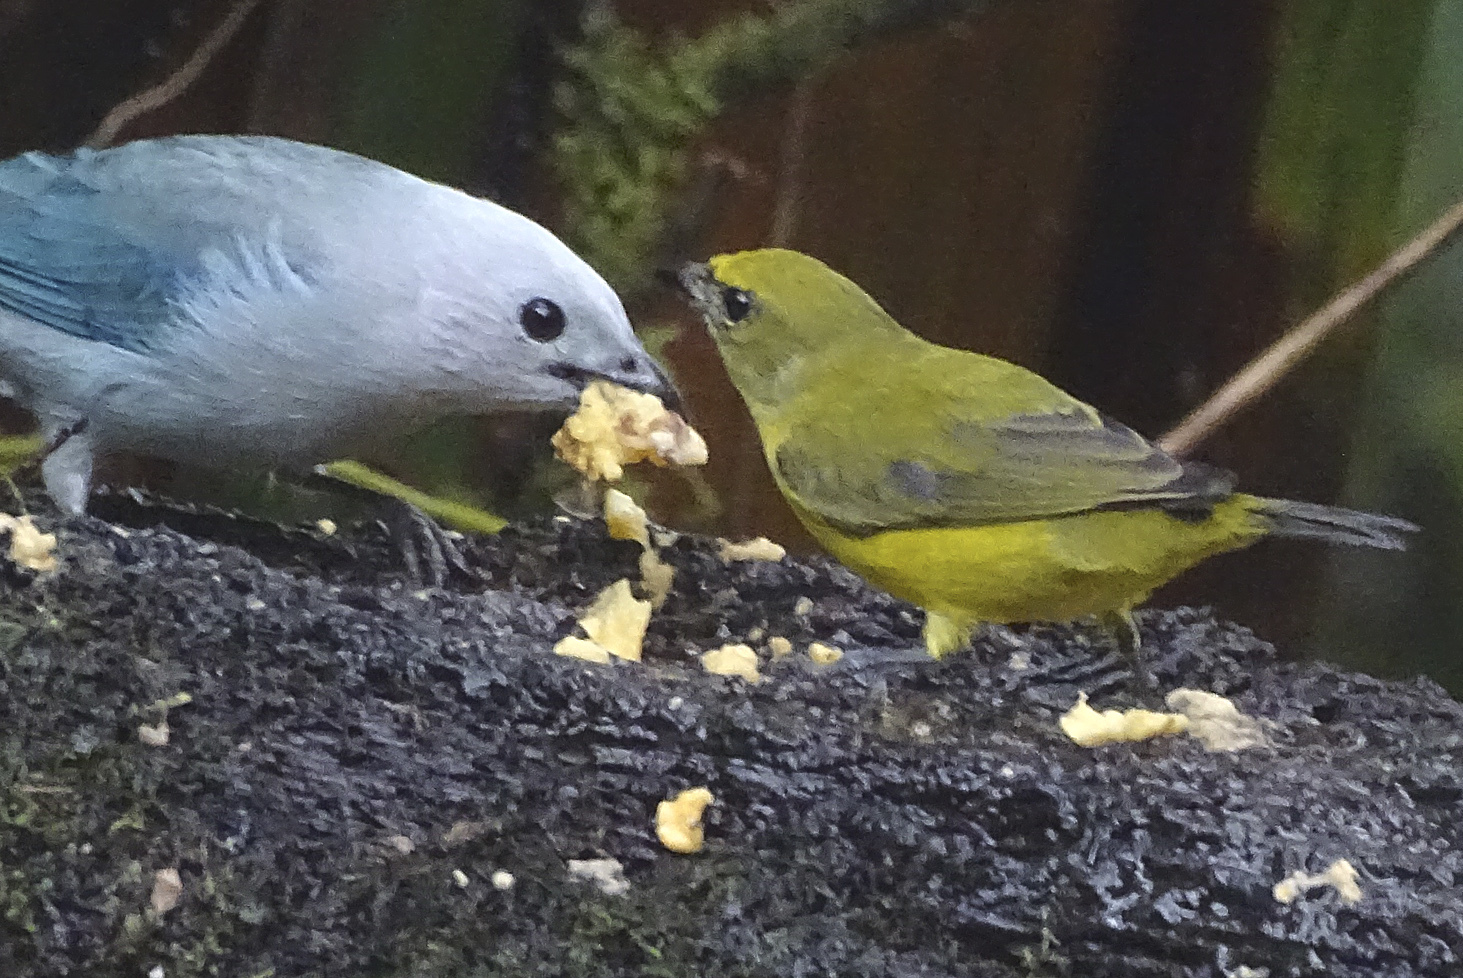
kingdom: Animalia
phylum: Chordata
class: Aves
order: Passeriformes
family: Fringillidae
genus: Euphonia
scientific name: Euphonia xanthogaster
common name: Orange-bellied euphonia
